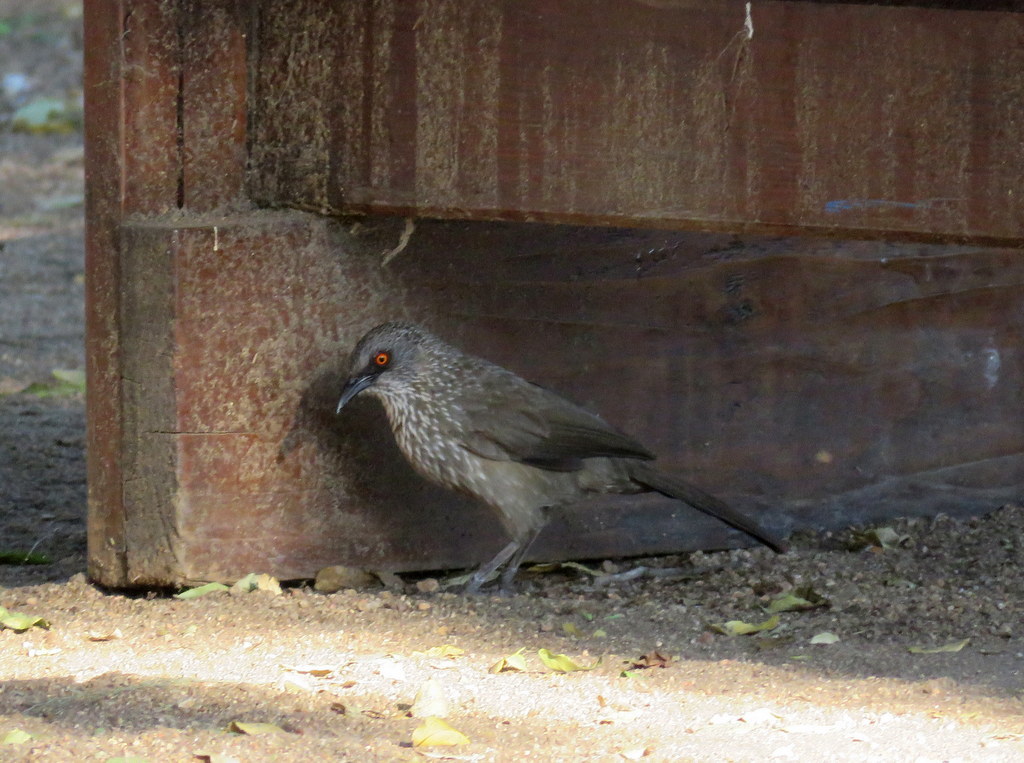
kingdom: Animalia
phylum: Chordata
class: Aves
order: Passeriformes
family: Leiothrichidae
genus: Turdoides
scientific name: Turdoides jardineii
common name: Arrow-marked babbler
